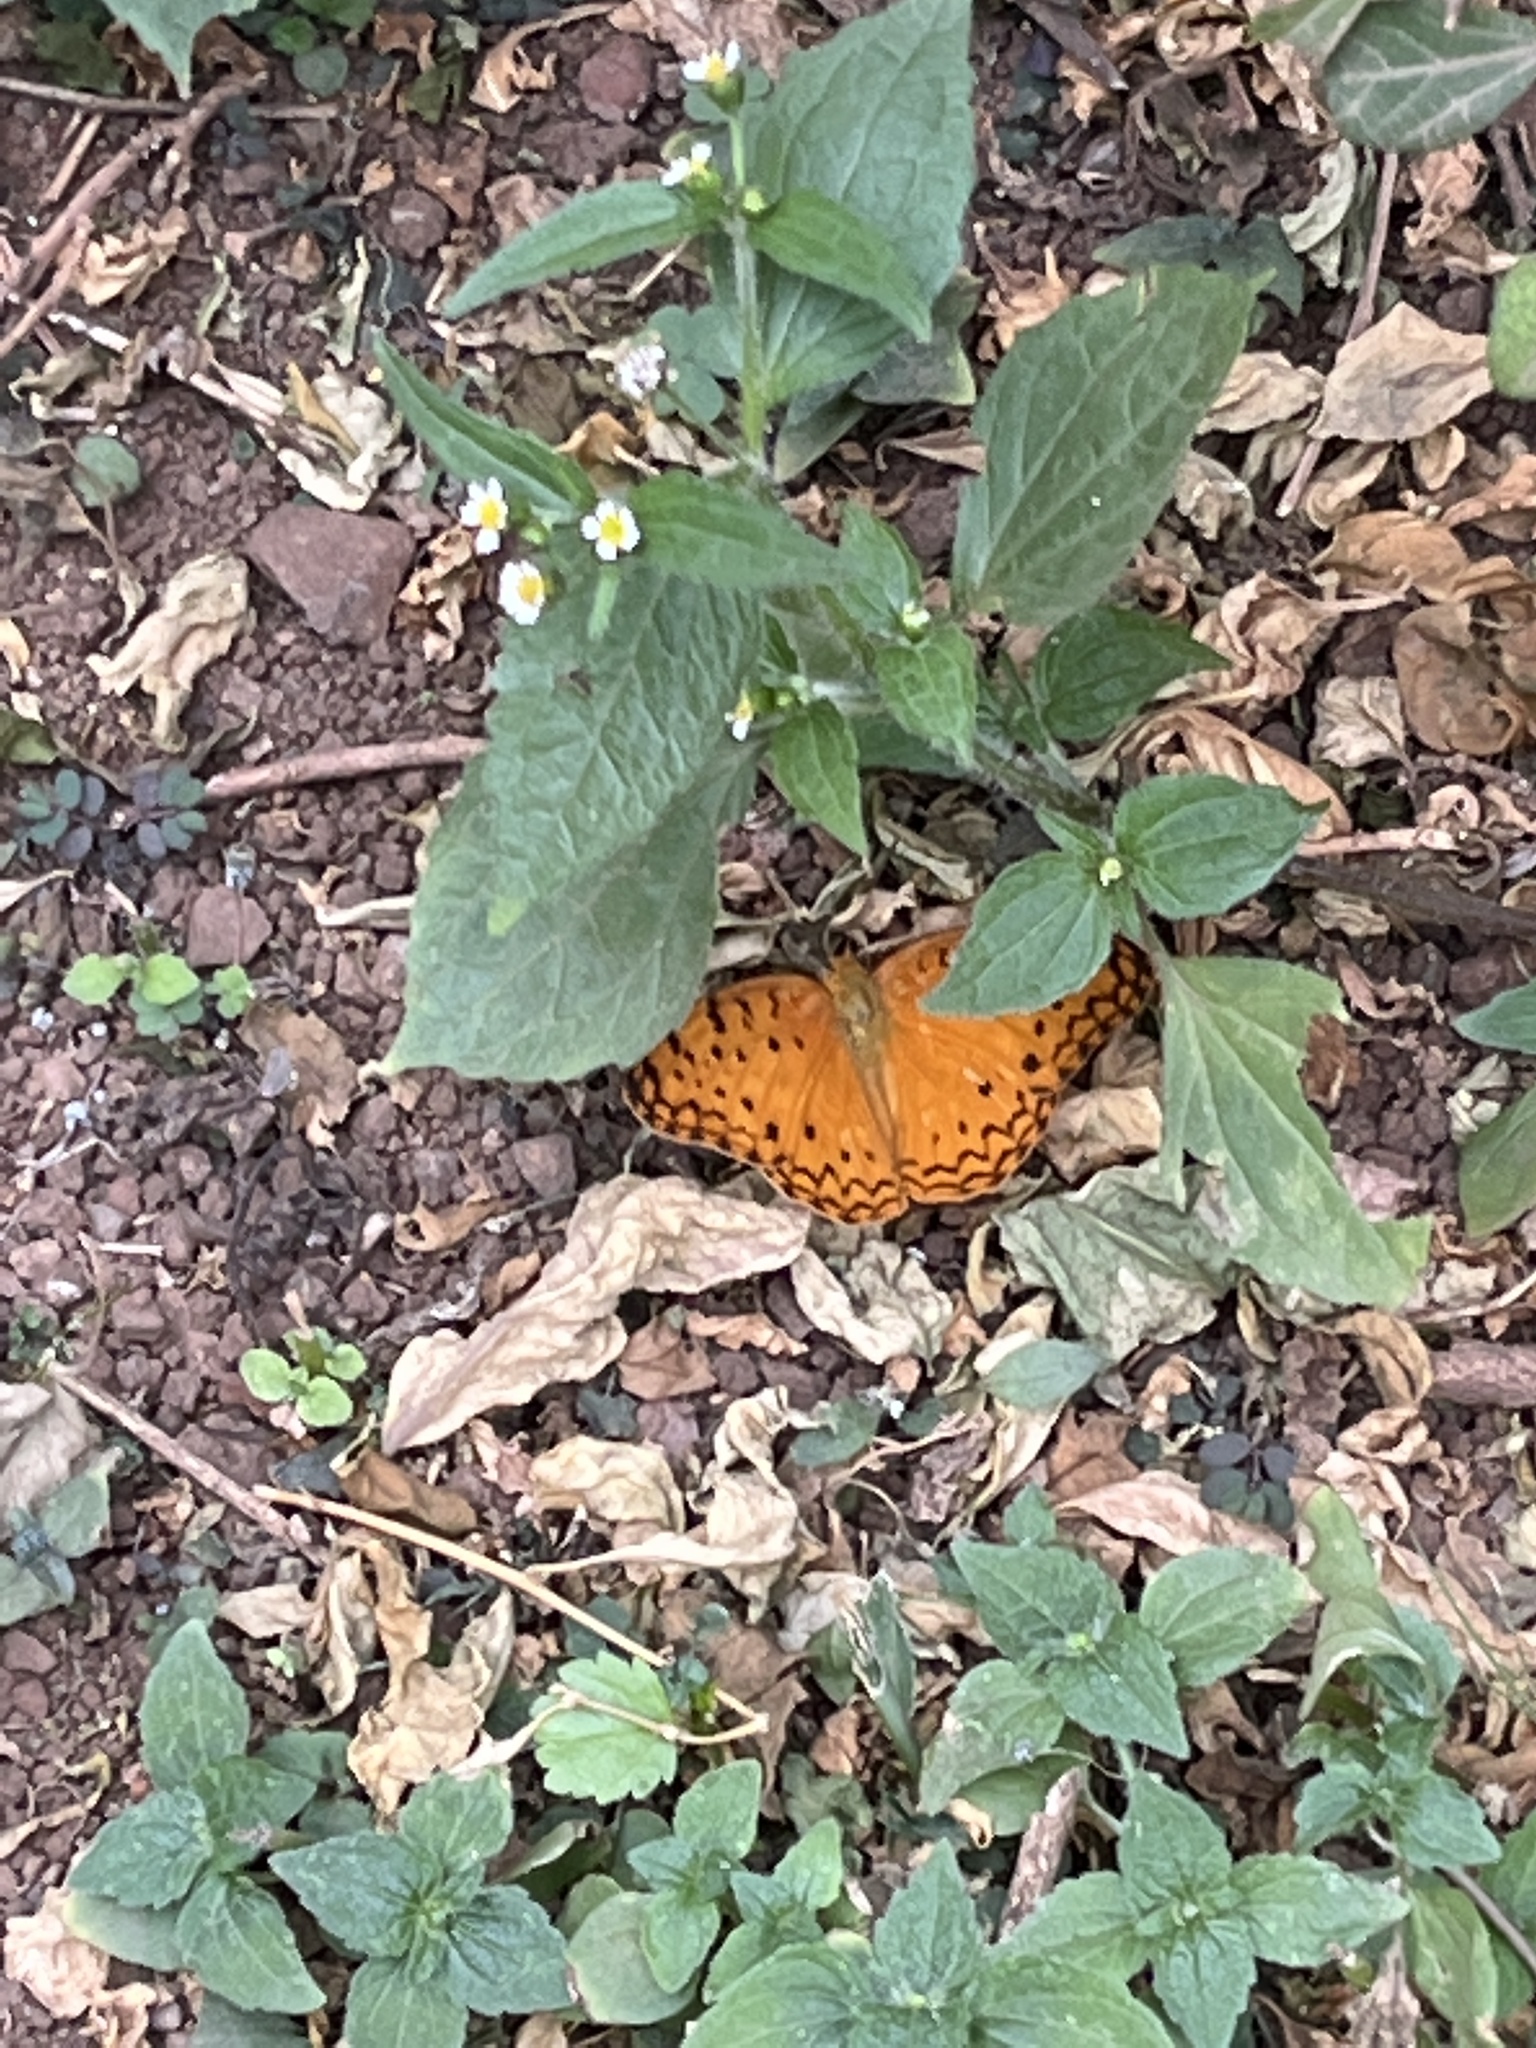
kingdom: Animalia
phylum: Arthropoda
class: Insecta
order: Lepidoptera
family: Nymphalidae
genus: Phalanta
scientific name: Phalanta phalantha
